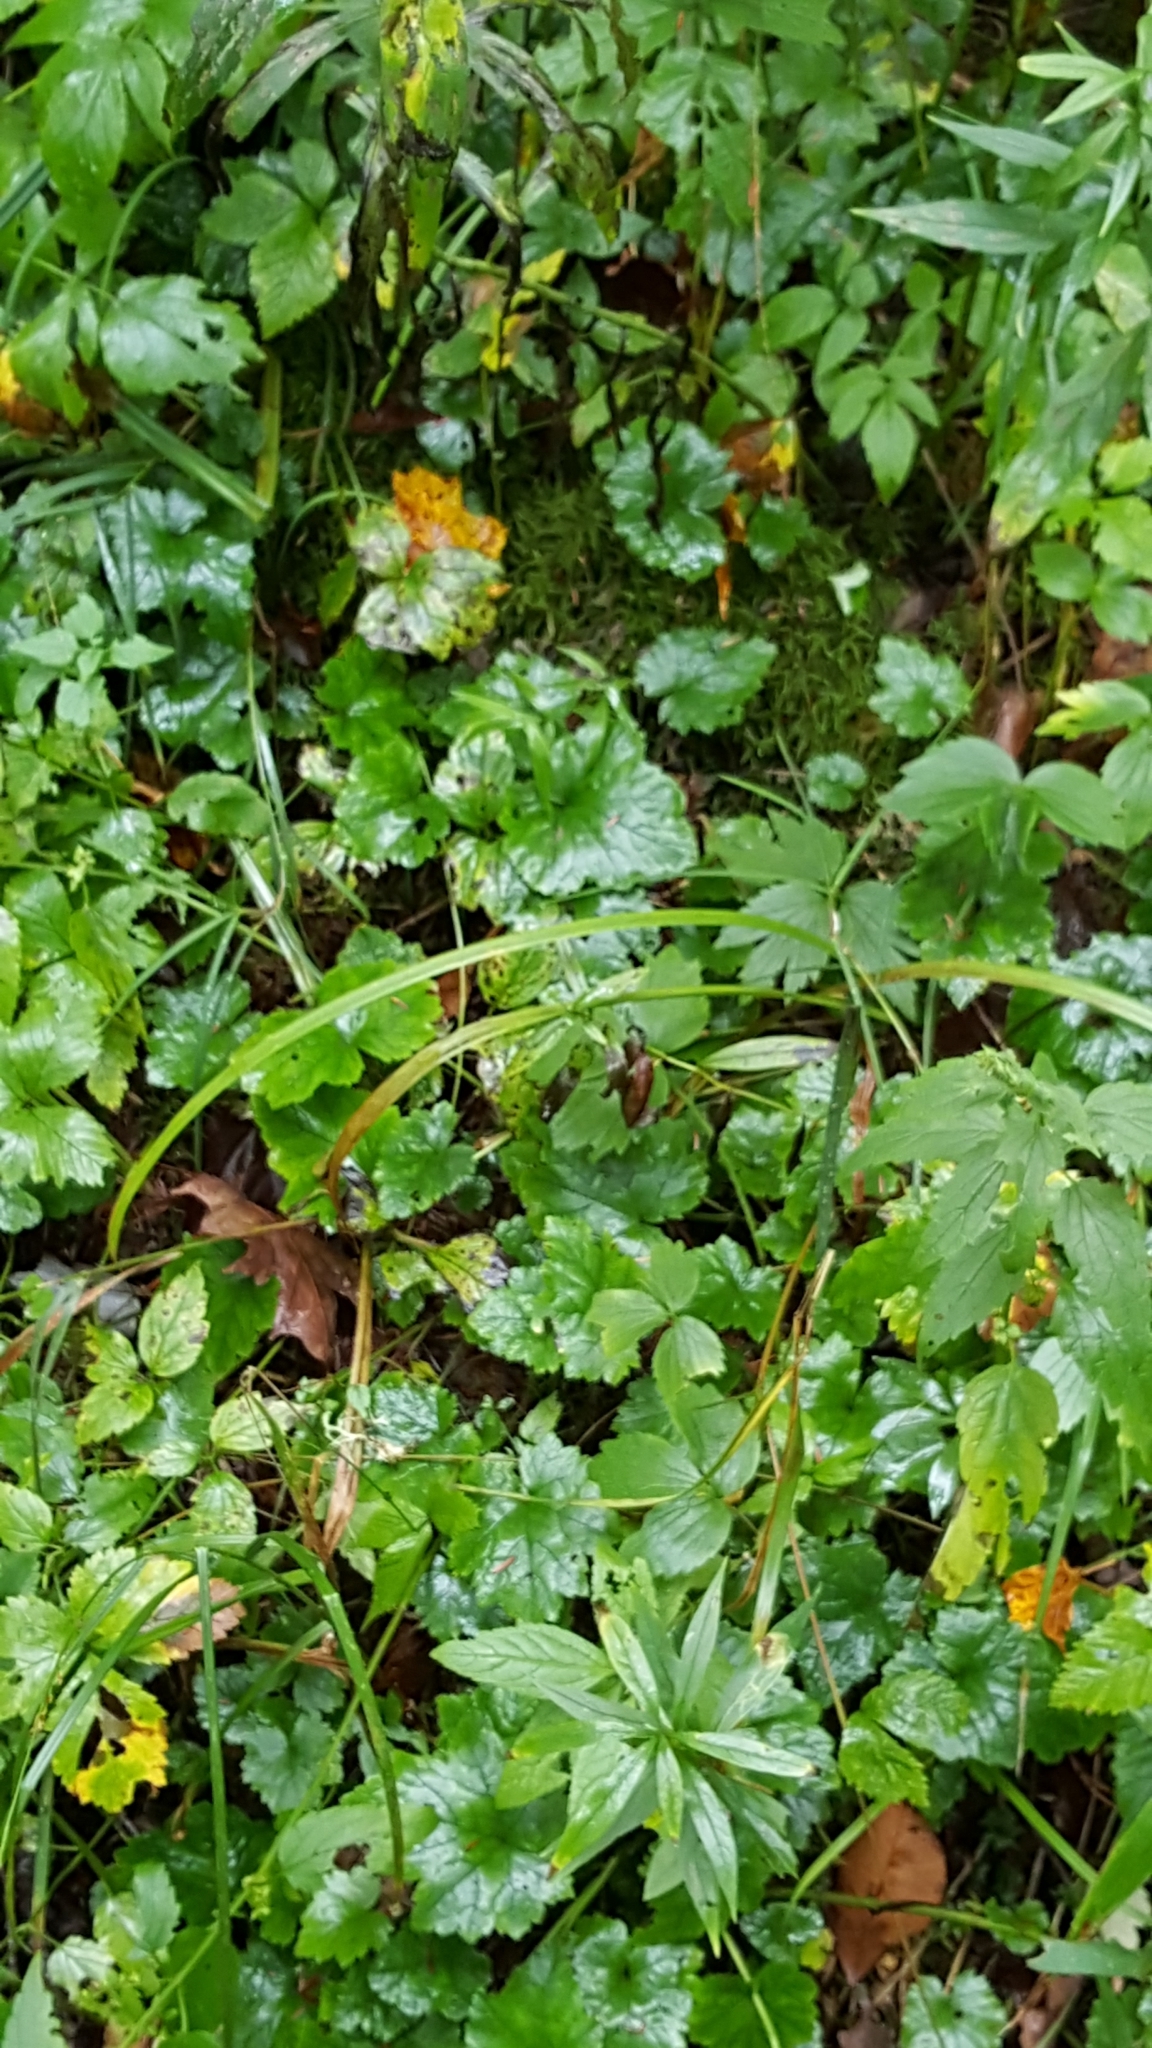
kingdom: Plantae
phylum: Tracheophyta
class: Magnoliopsida
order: Saxifragales
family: Saxifragaceae
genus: Tiarella
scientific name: Tiarella stolonifera
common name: Stoloniferous foamflower
